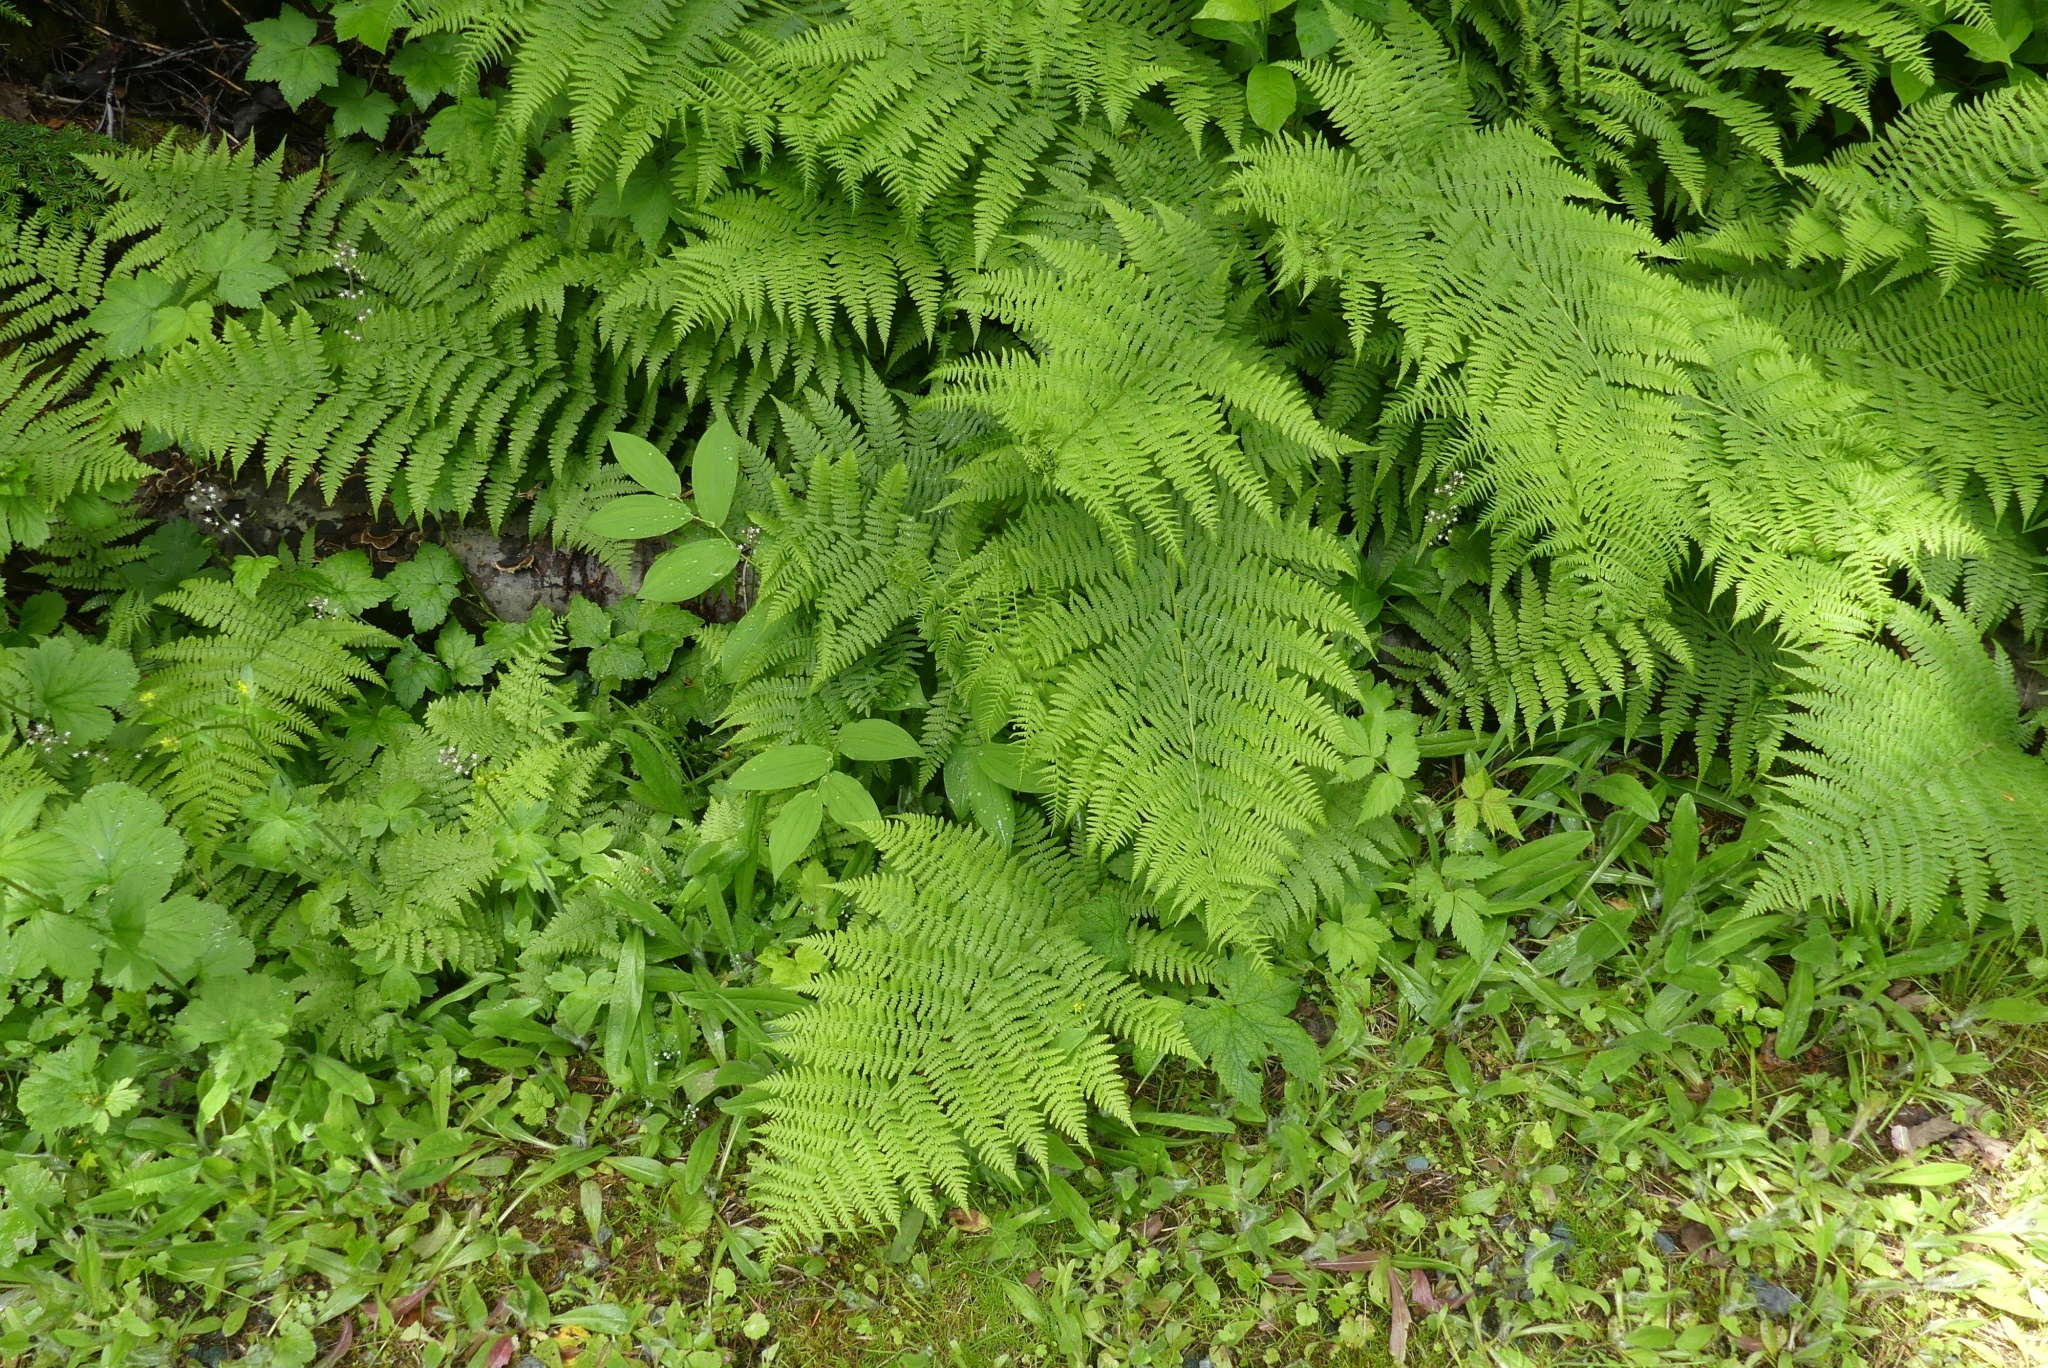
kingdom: Plantae
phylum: Tracheophyta
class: Polypodiopsida
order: Polypodiales
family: Athyriaceae
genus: Athyrium
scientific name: Athyrium filix-femina
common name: Lady fern
